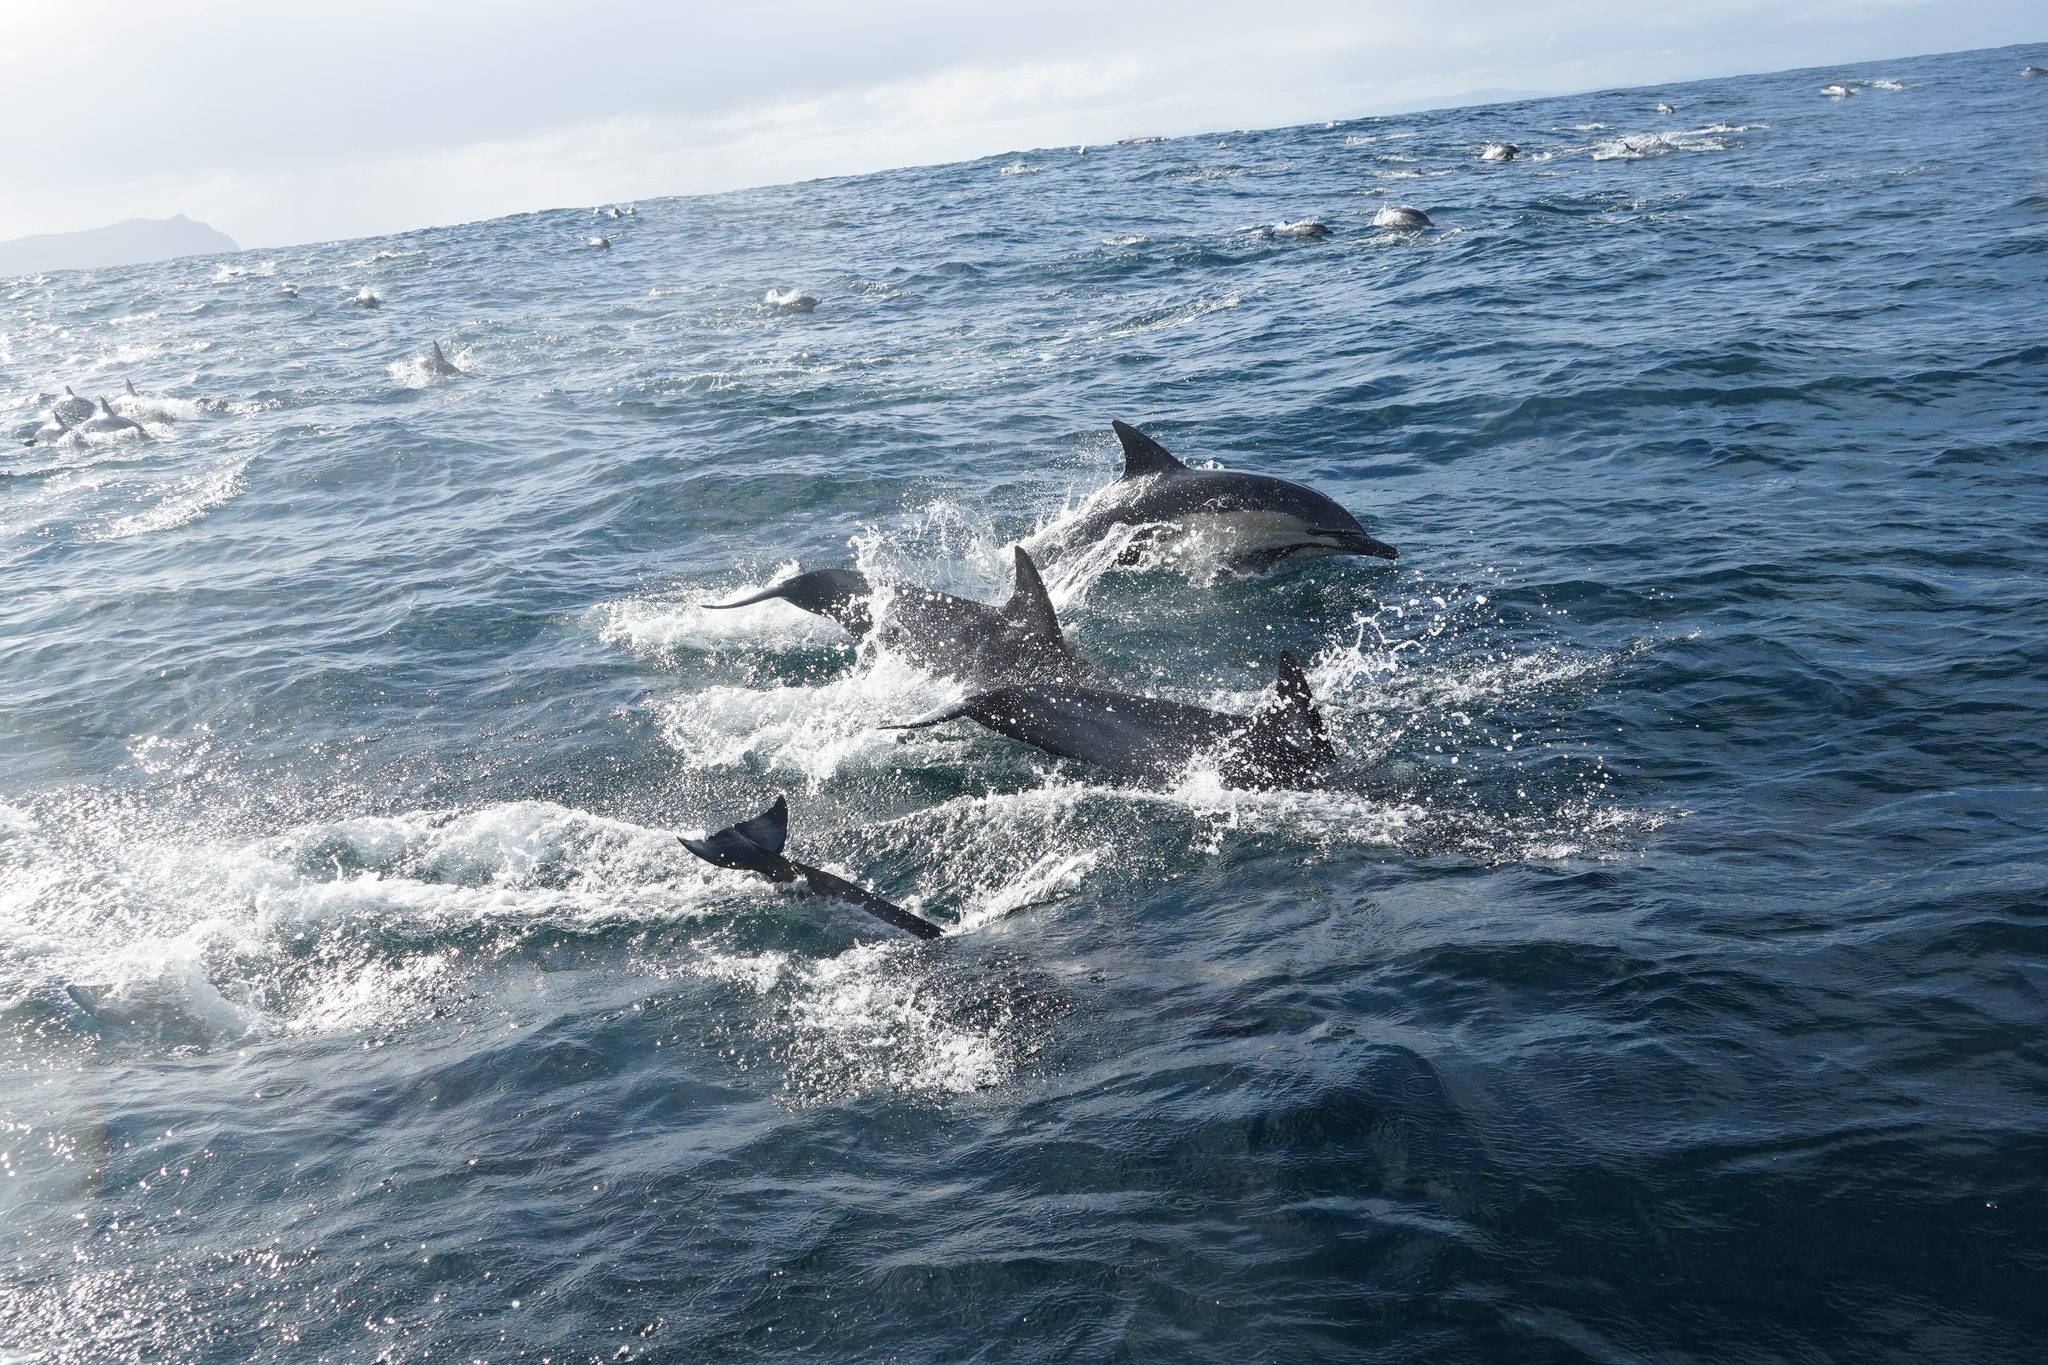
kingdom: Animalia
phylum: Chordata
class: Mammalia
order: Cetacea
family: Delphinidae
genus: Delphinus
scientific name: Delphinus delphis
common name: Common dolphin
